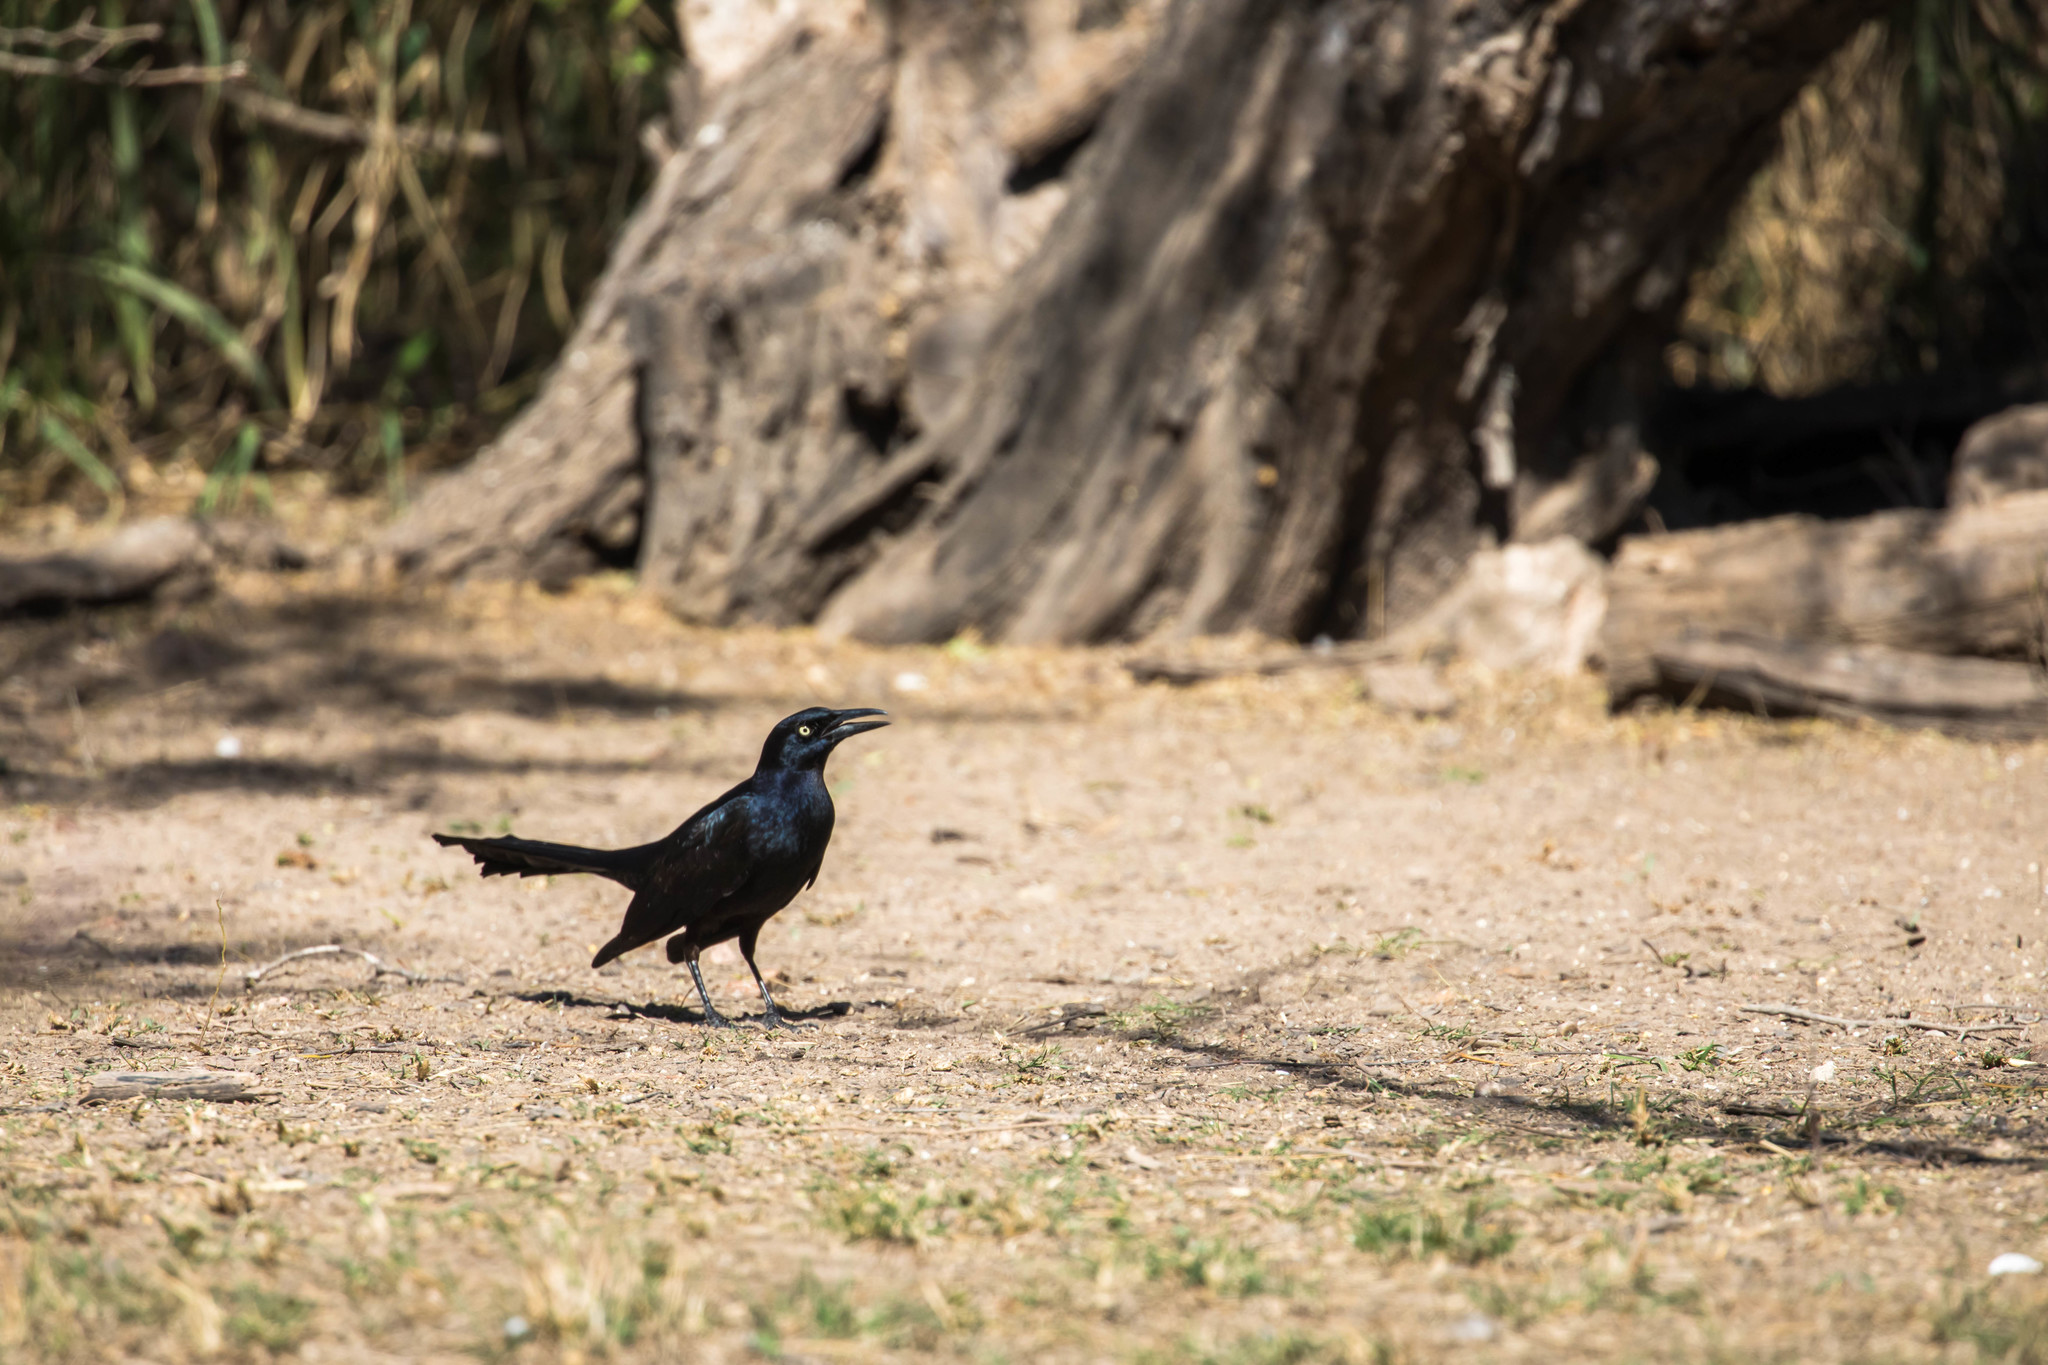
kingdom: Animalia
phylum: Chordata
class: Aves
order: Passeriformes
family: Icteridae
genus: Quiscalus
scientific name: Quiscalus mexicanus
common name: Great-tailed grackle
